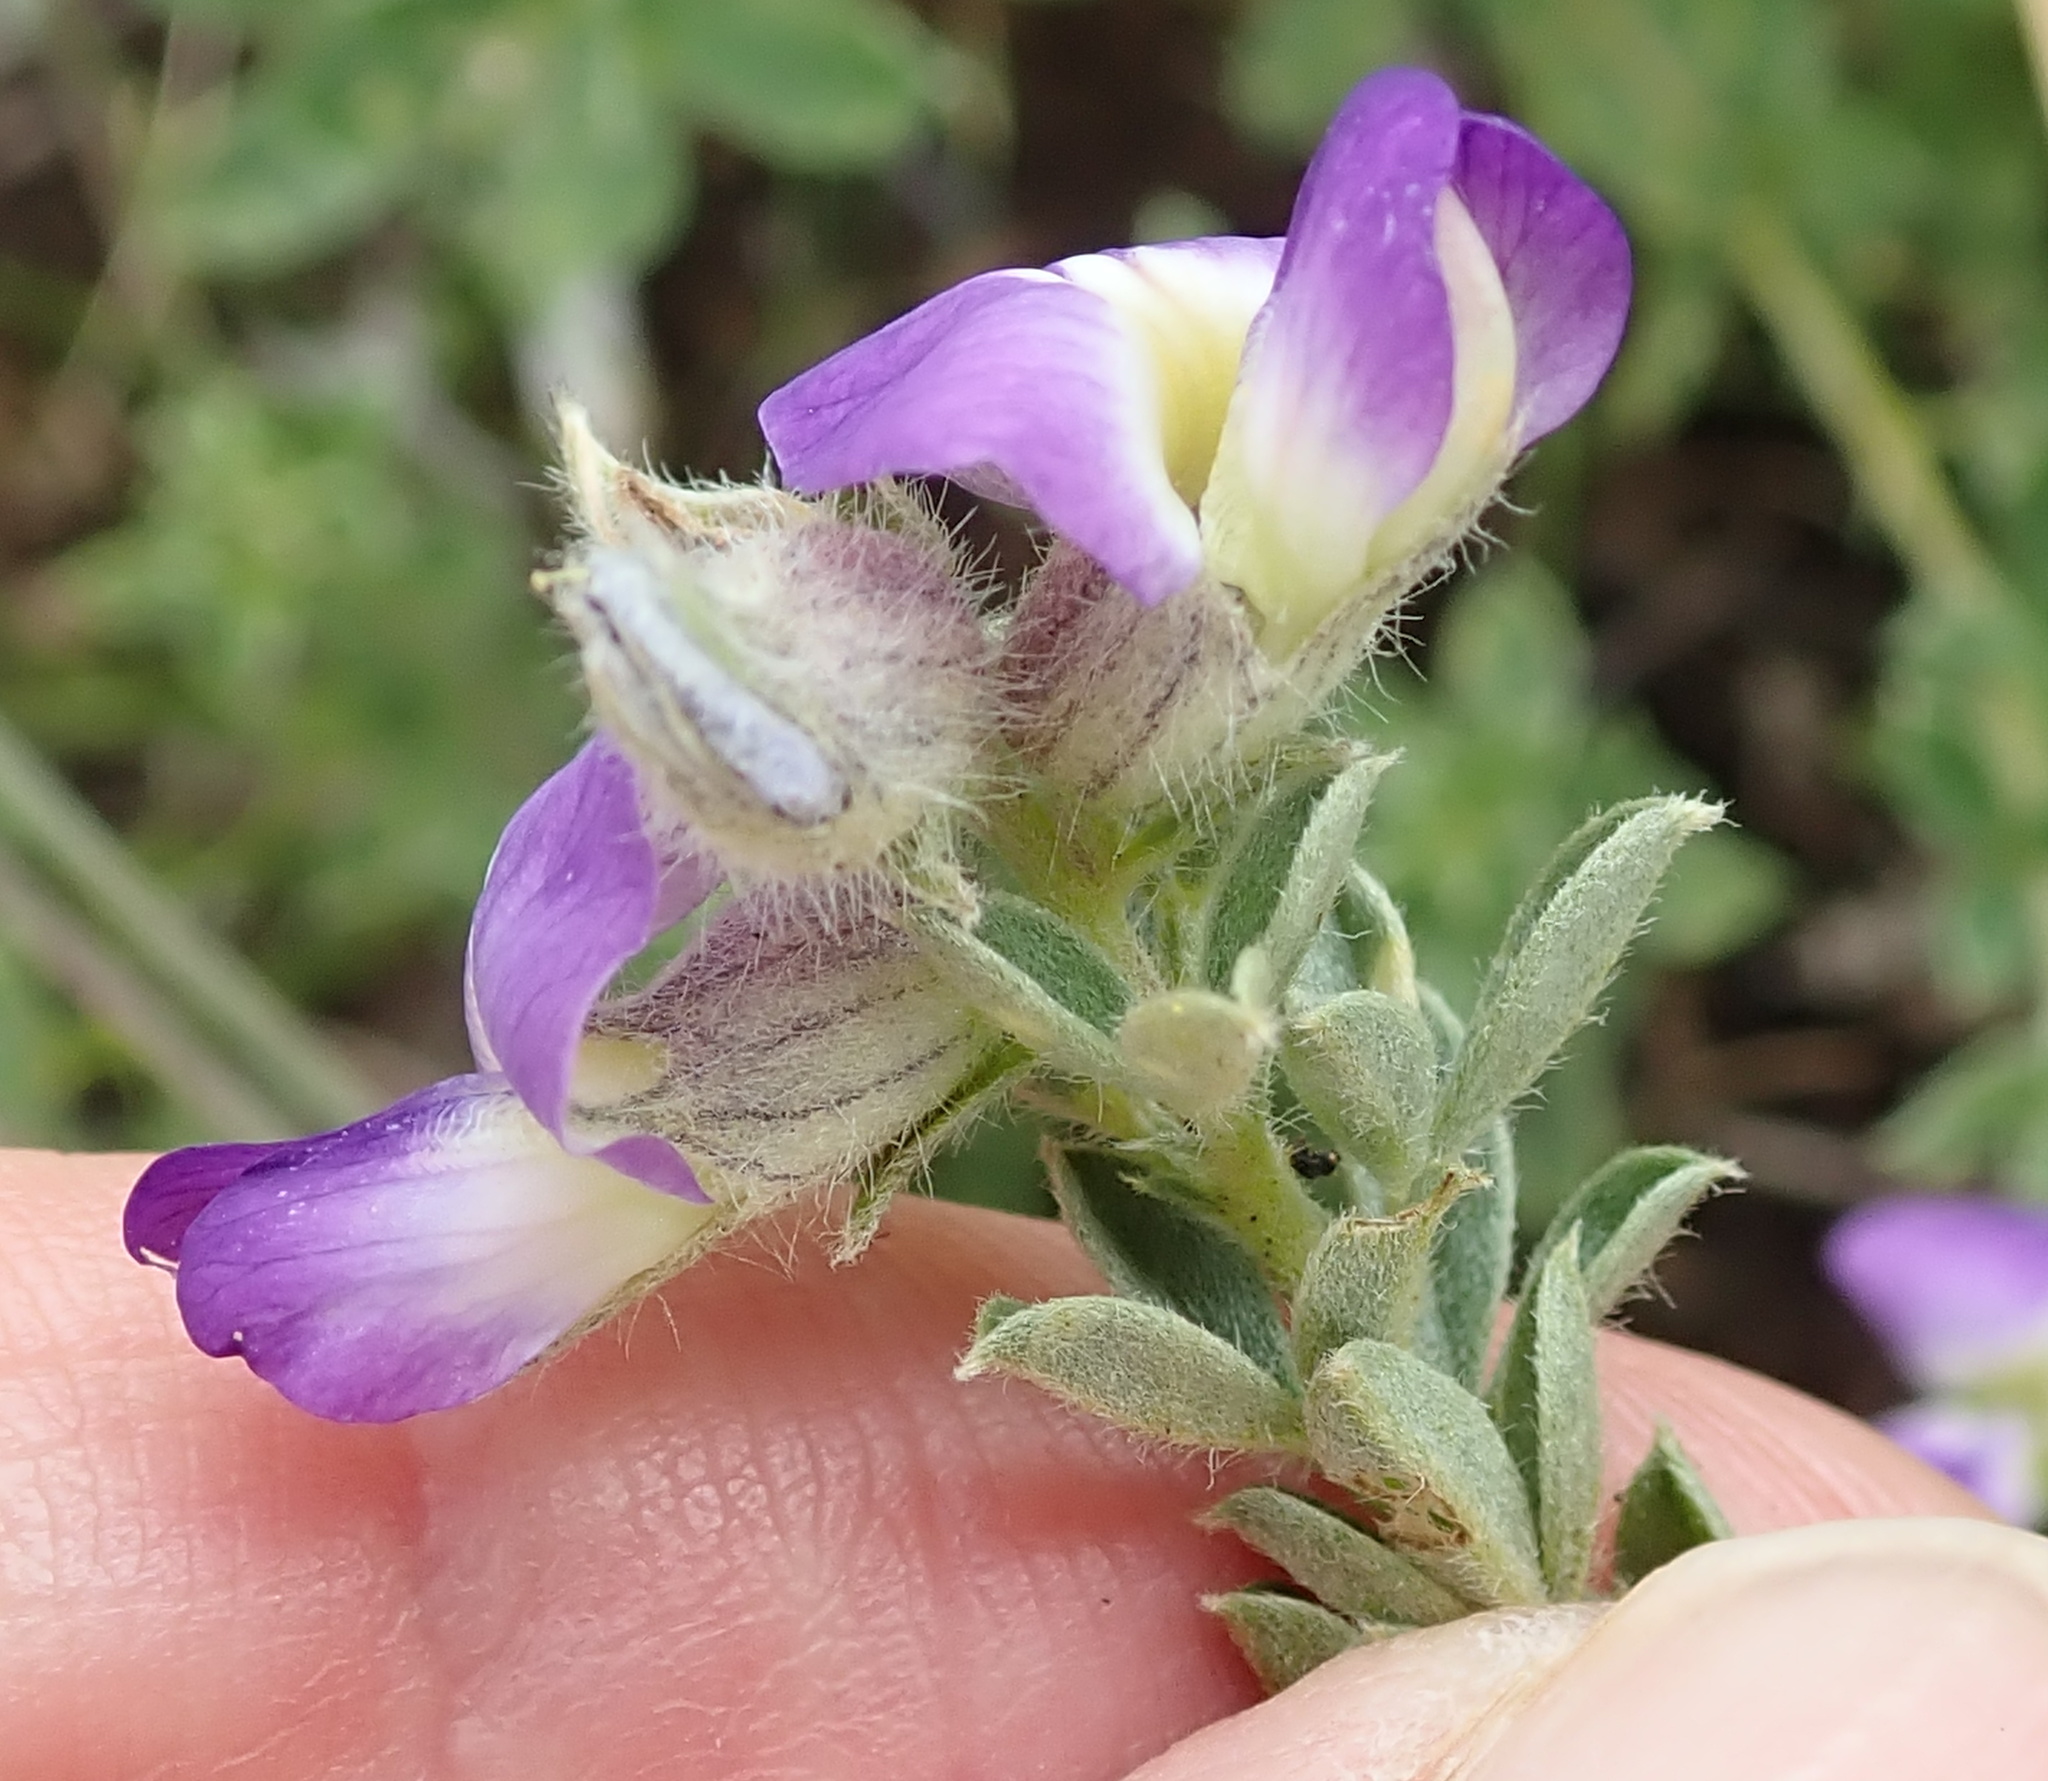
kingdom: Plantae
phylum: Tracheophyta
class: Magnoliopsida
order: Fabales
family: Fabaceae
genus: Lotononis
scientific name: Lotononis pulchella
